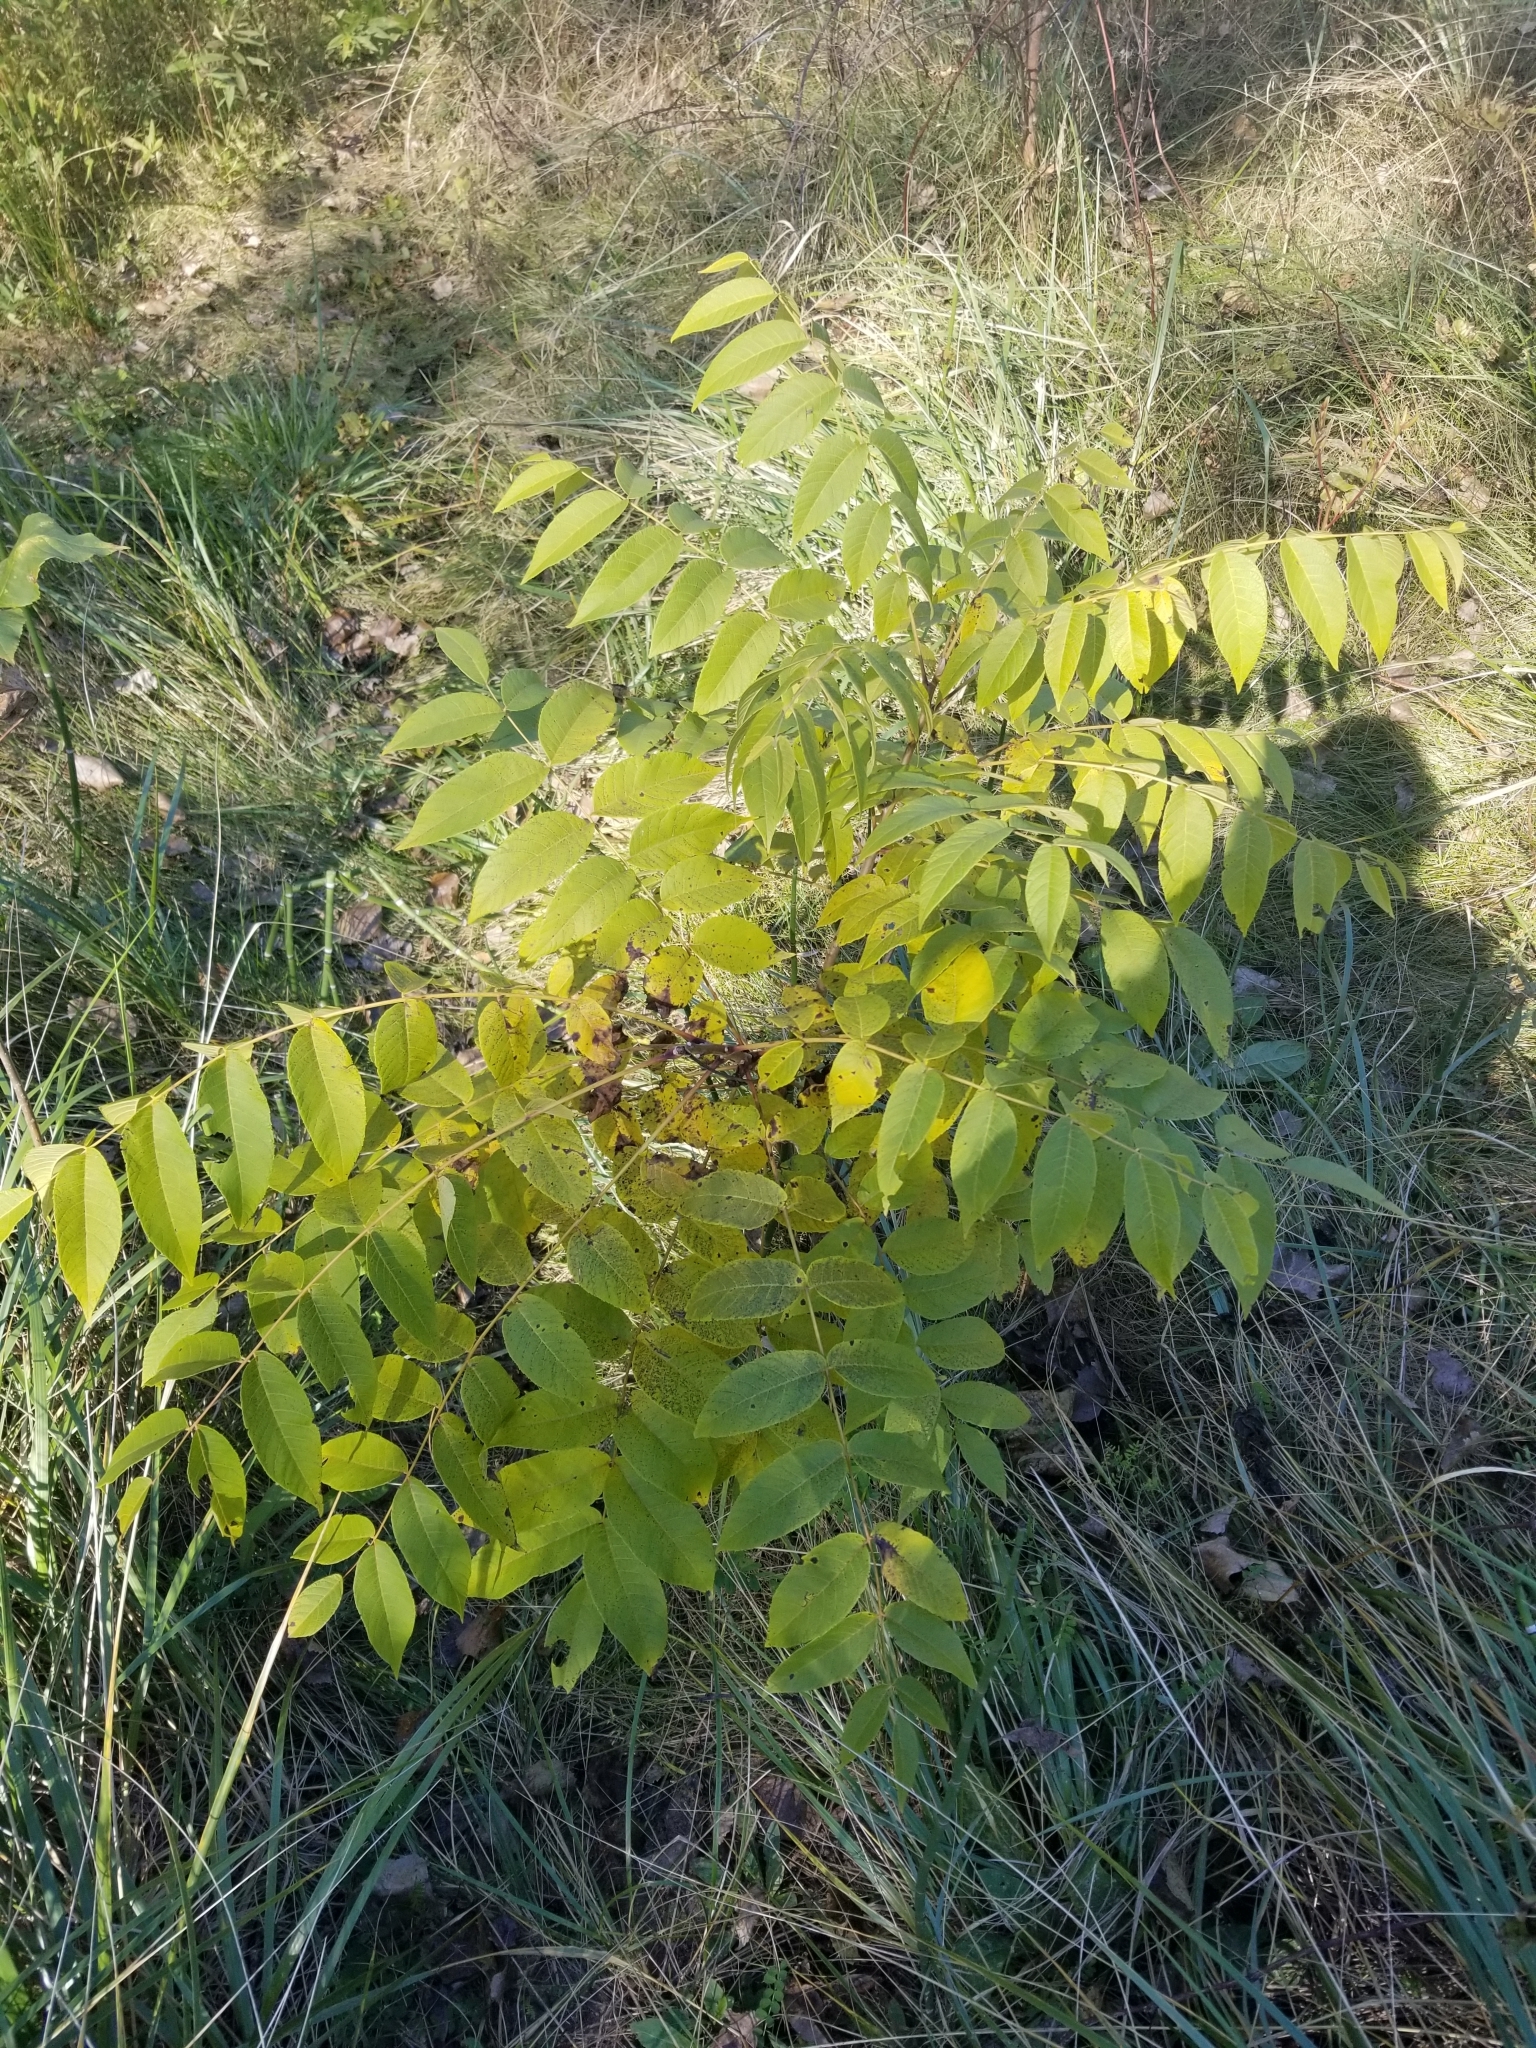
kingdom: Plantae
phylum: Tracheophyta
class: Magnoliopsida
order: Fagales
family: Juglandaceae
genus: Juglans
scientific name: Juglans nigra
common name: Black walnut
